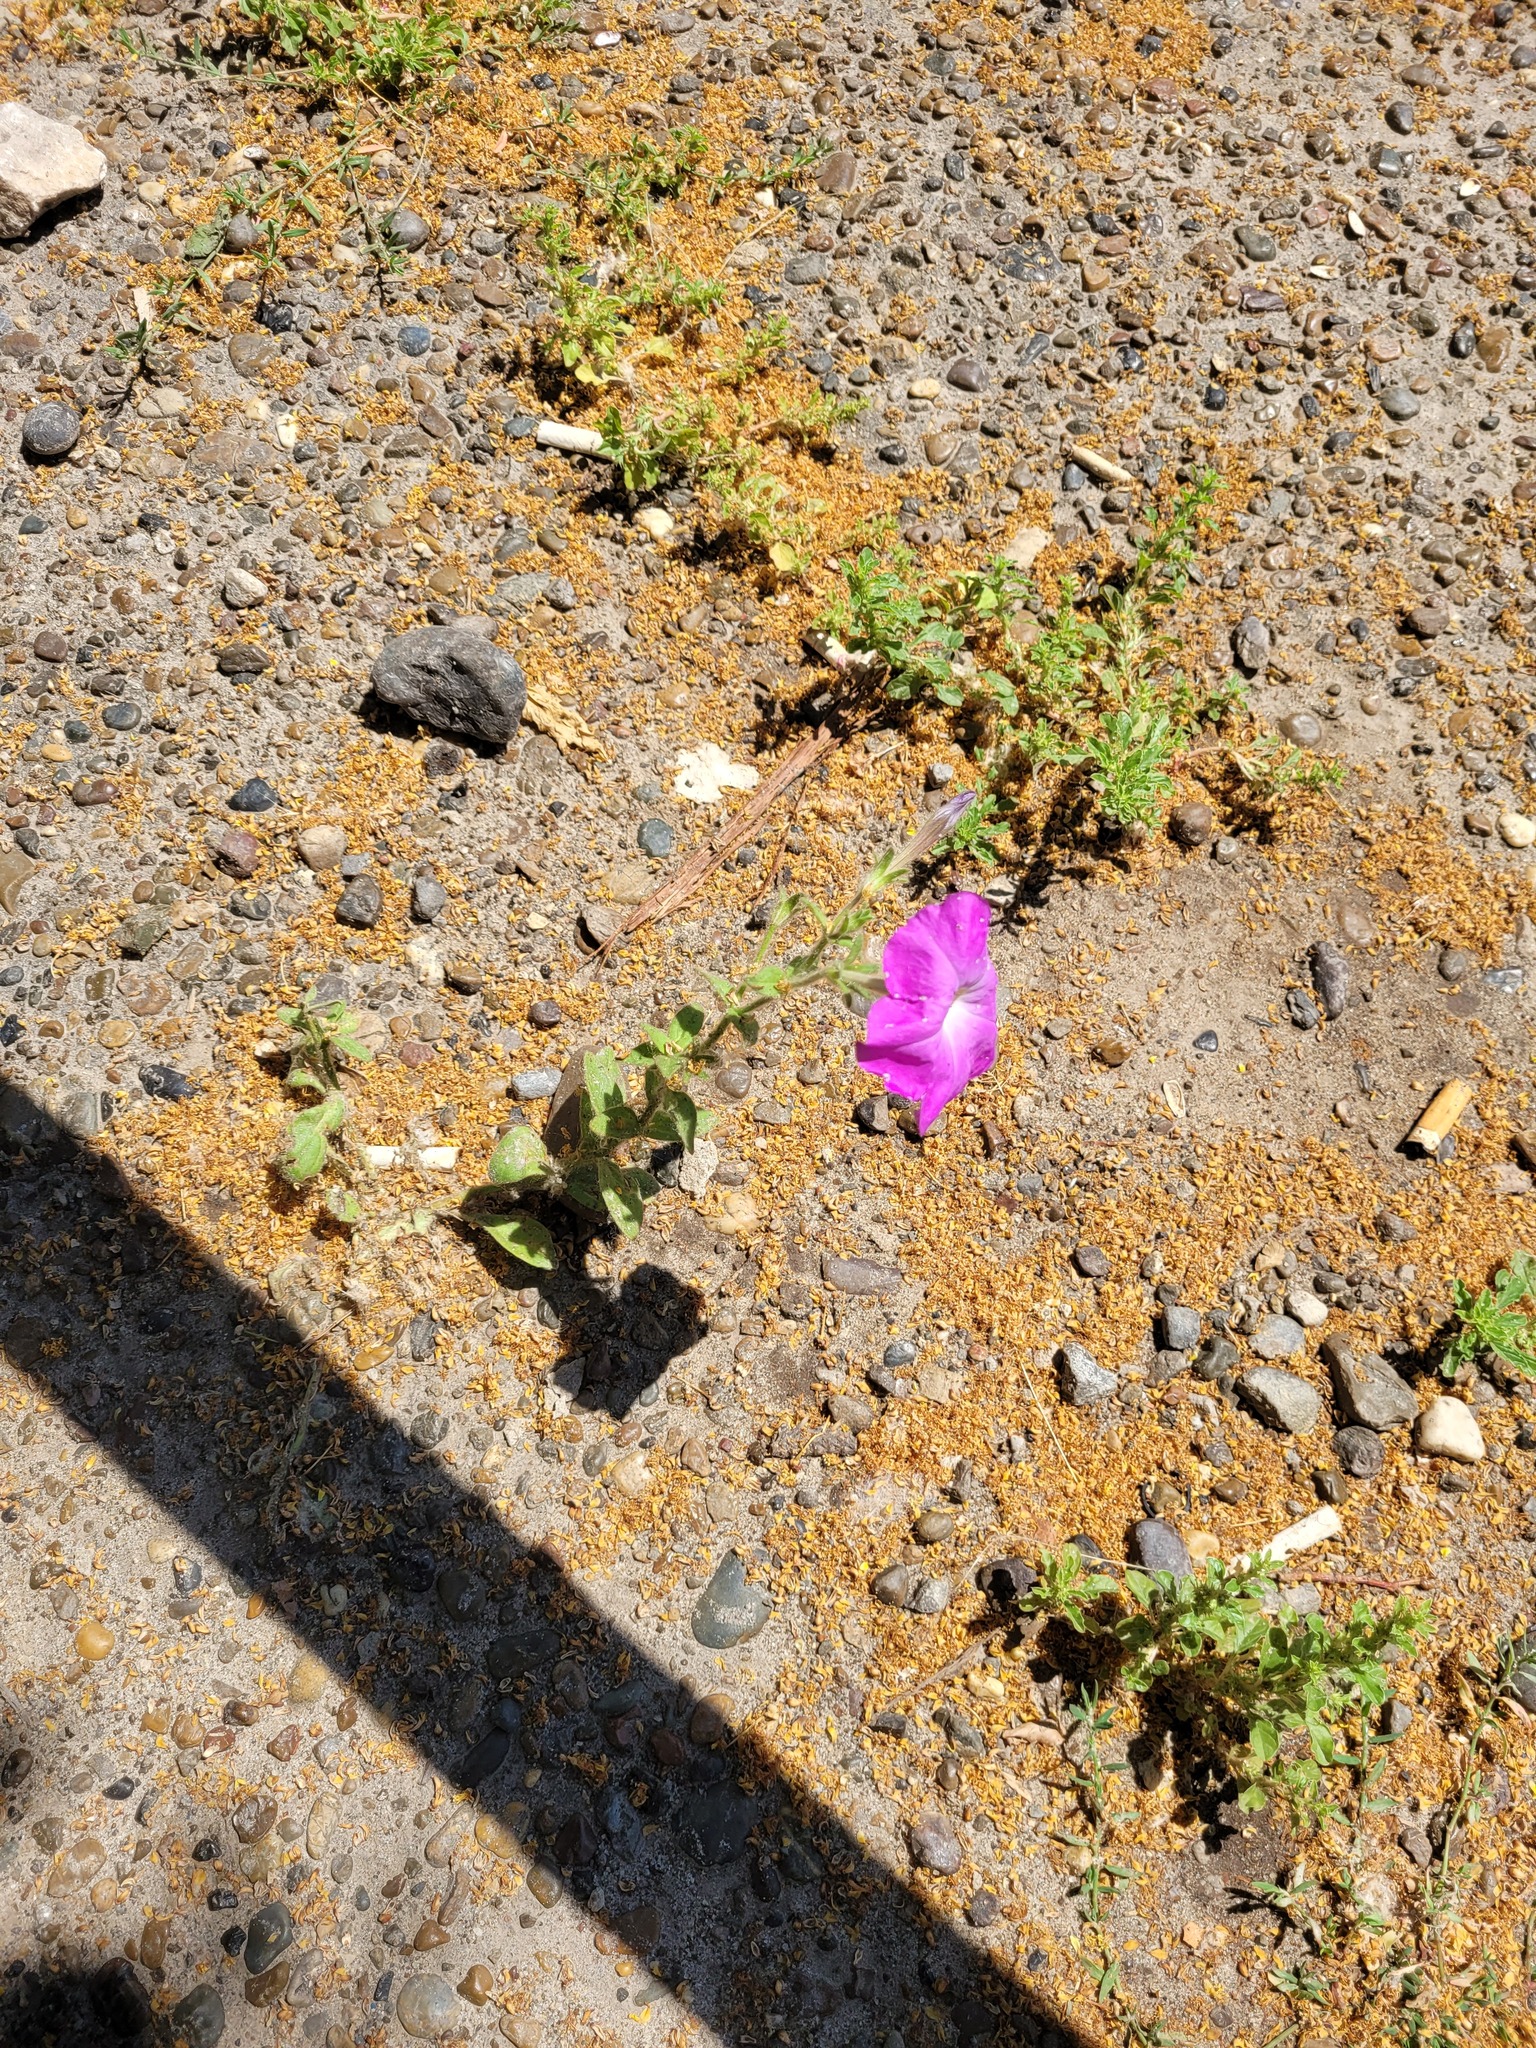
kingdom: Plantae
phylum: Tracheophyta
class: Magnoliopsida
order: Solanales
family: Solanaceae
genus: Petunia
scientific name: Petunia atkinsiana
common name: Petunia
